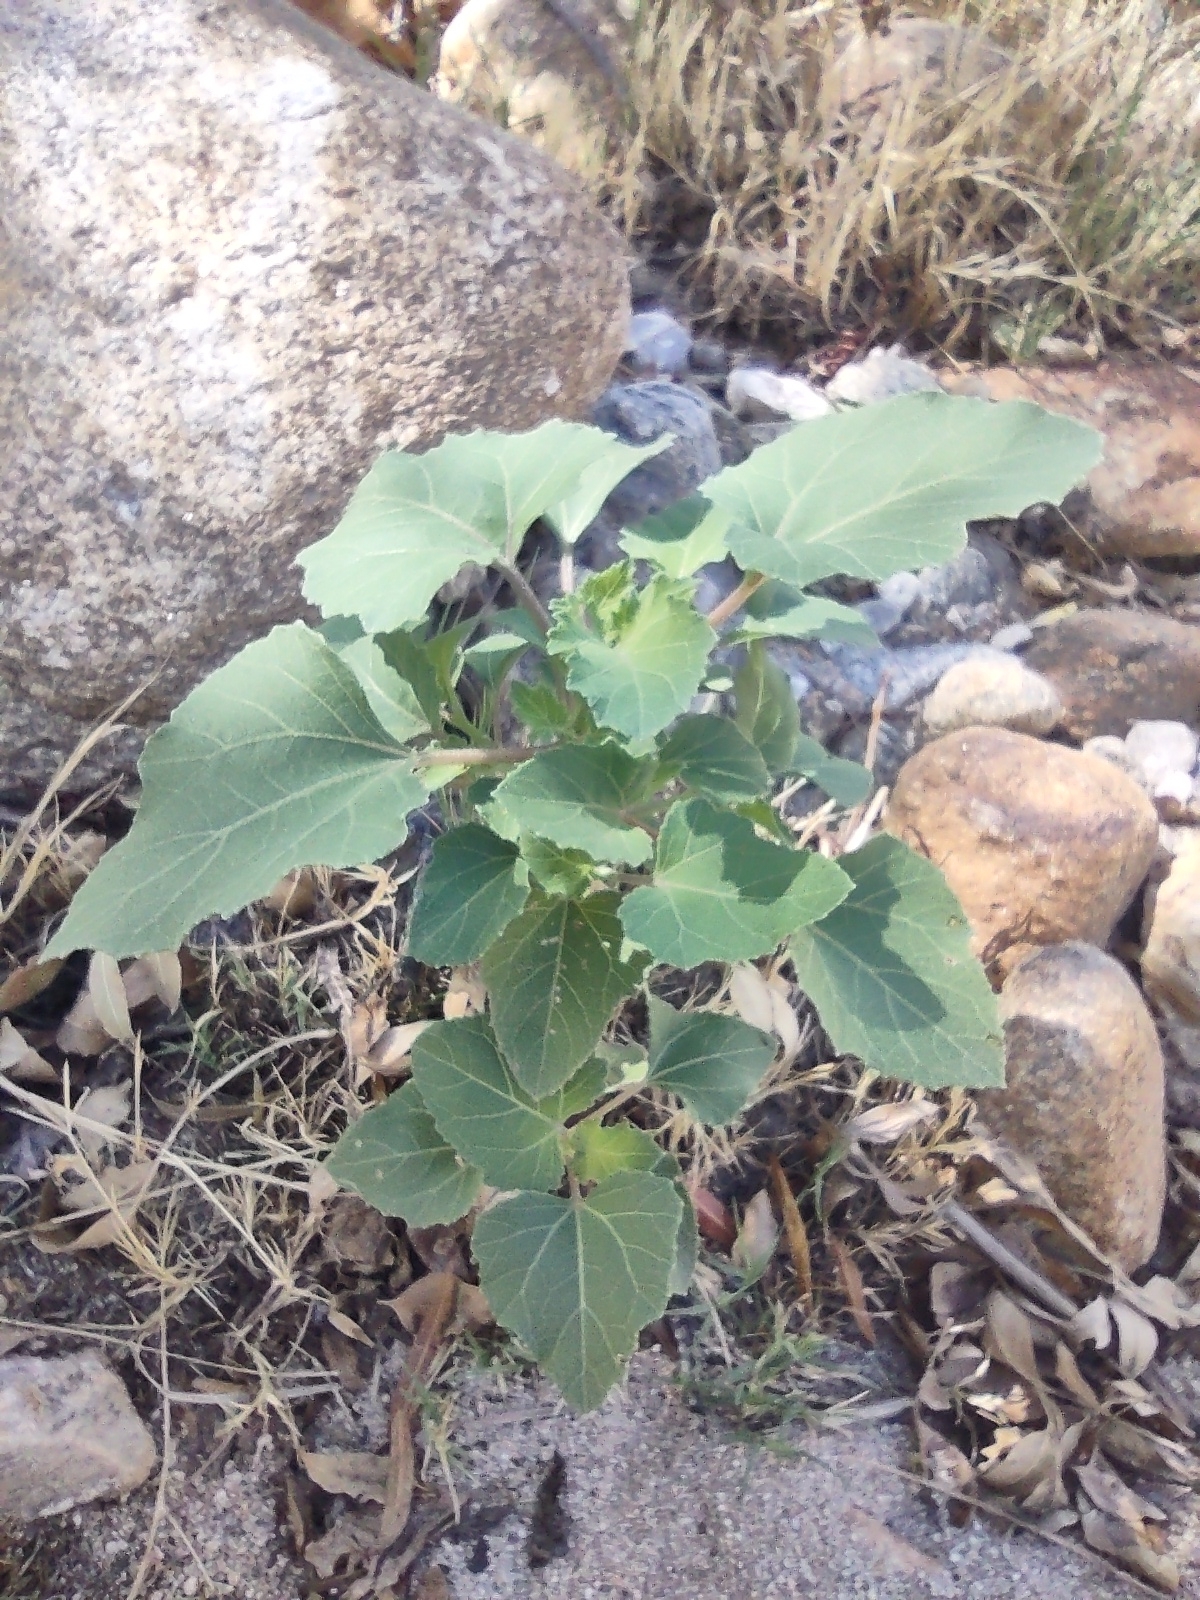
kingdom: Plantae
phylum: Tracheophyta
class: Magnoliopsida
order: Asterales
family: Asteraceae
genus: Xanthium
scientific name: Xanthium strumarium
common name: Rough cocklebur
